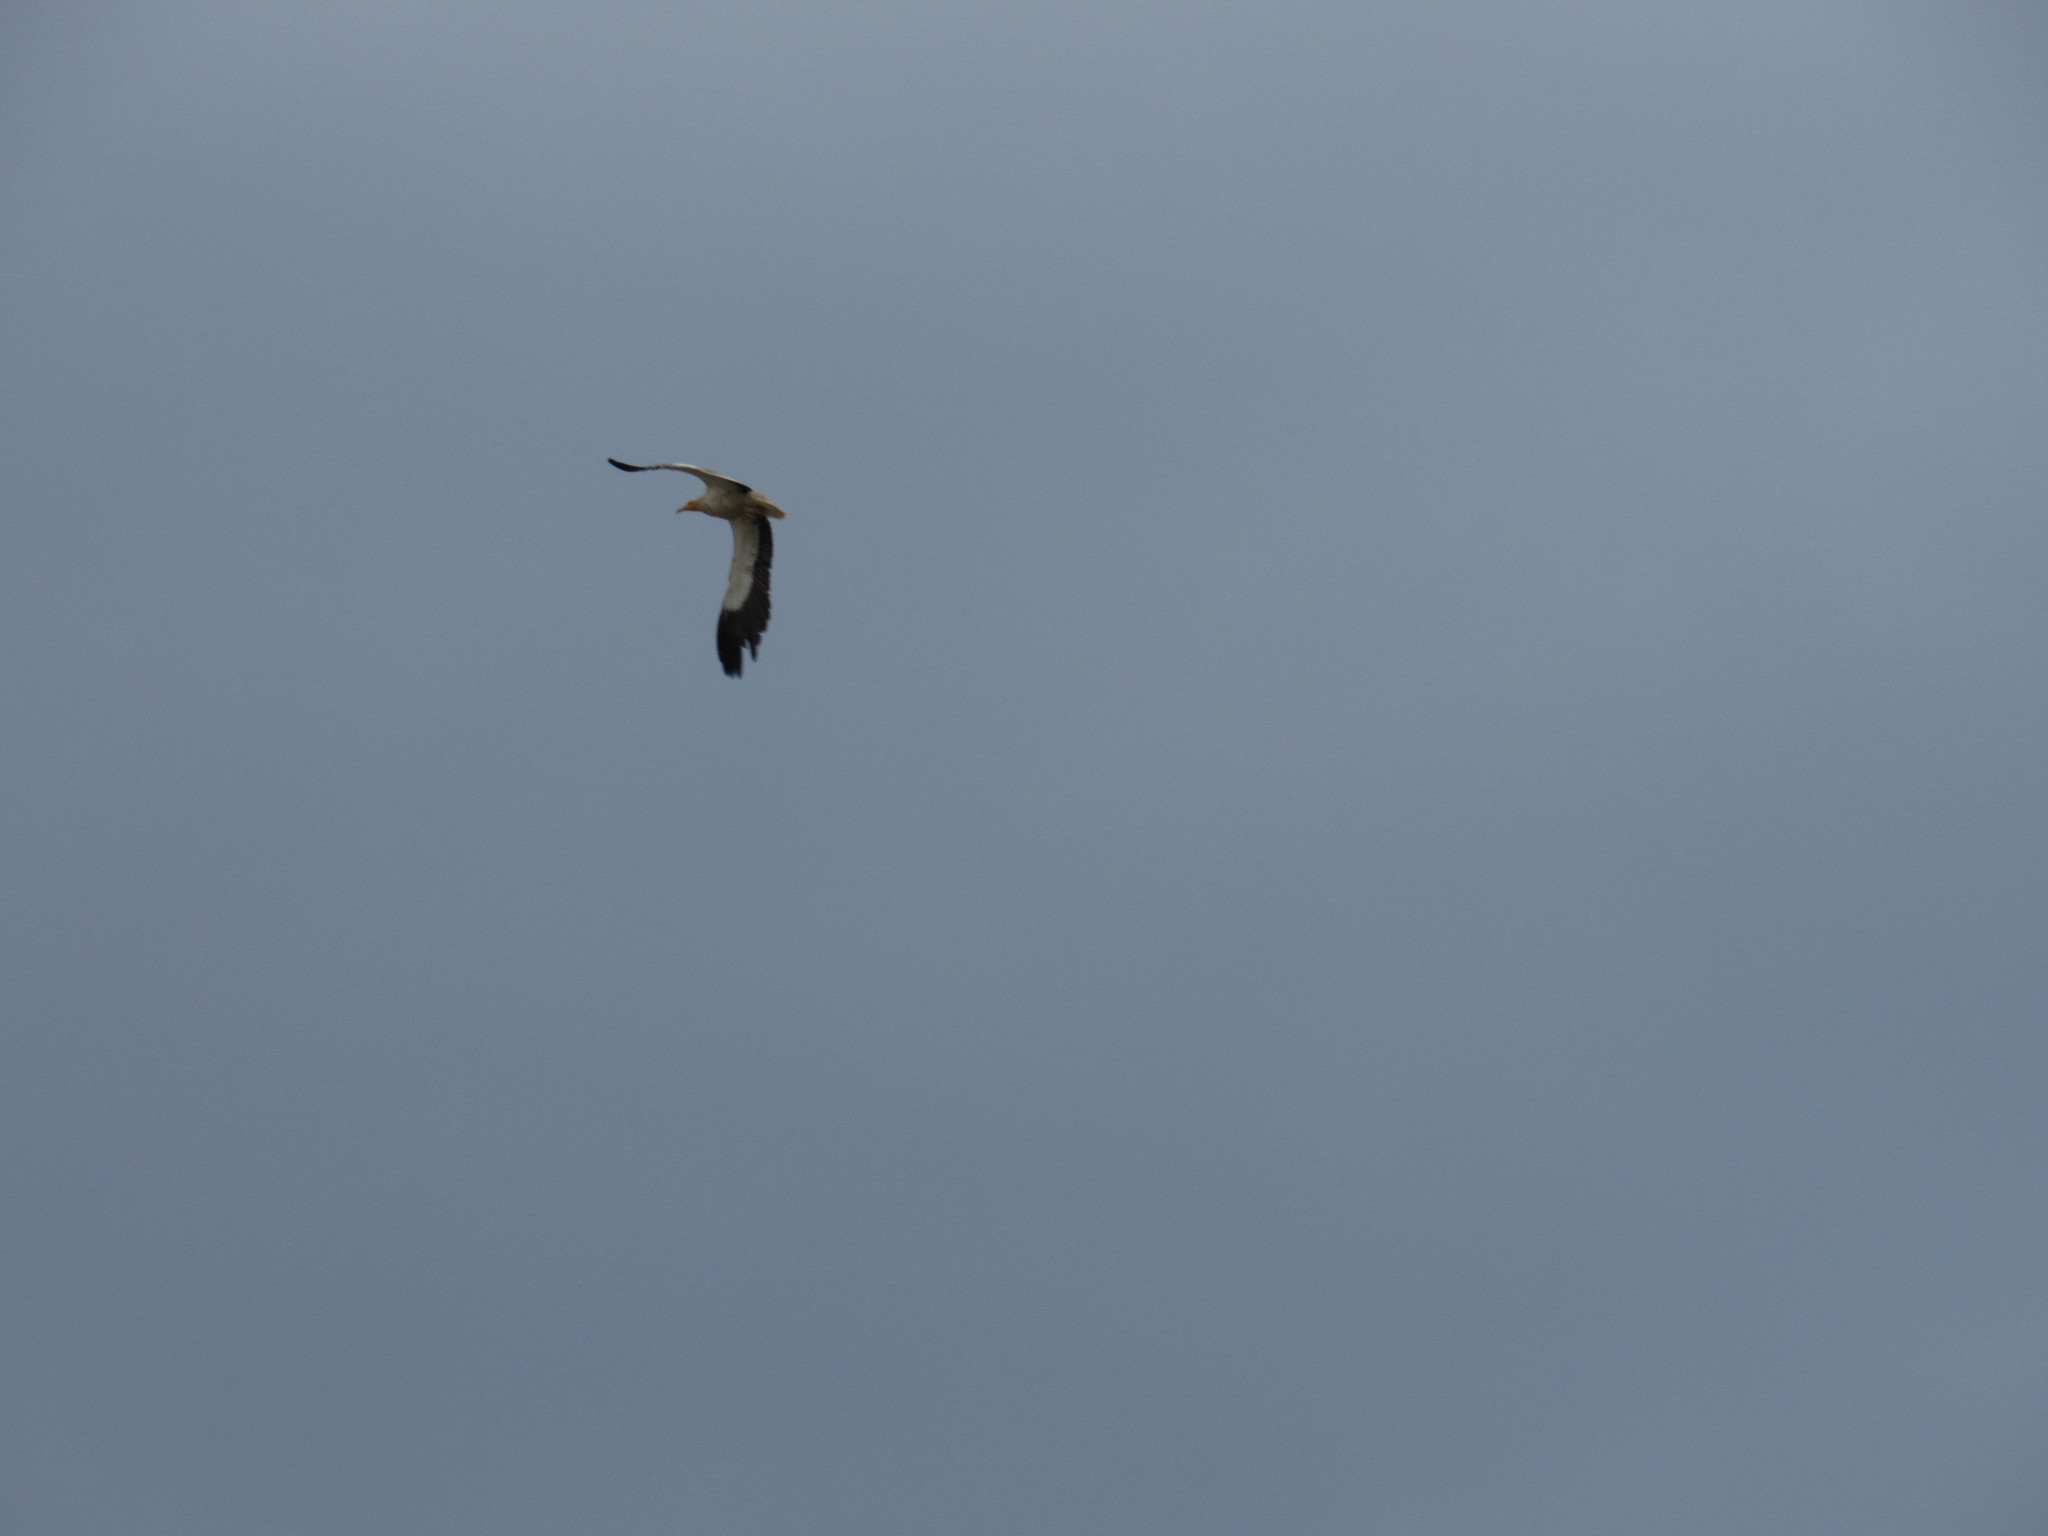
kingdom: Animalia
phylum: Chordata
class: Aves
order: Accipitriformes
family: Accipitridae
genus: Neophron
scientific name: Neophron percnopterus
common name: Egyptian vulture
